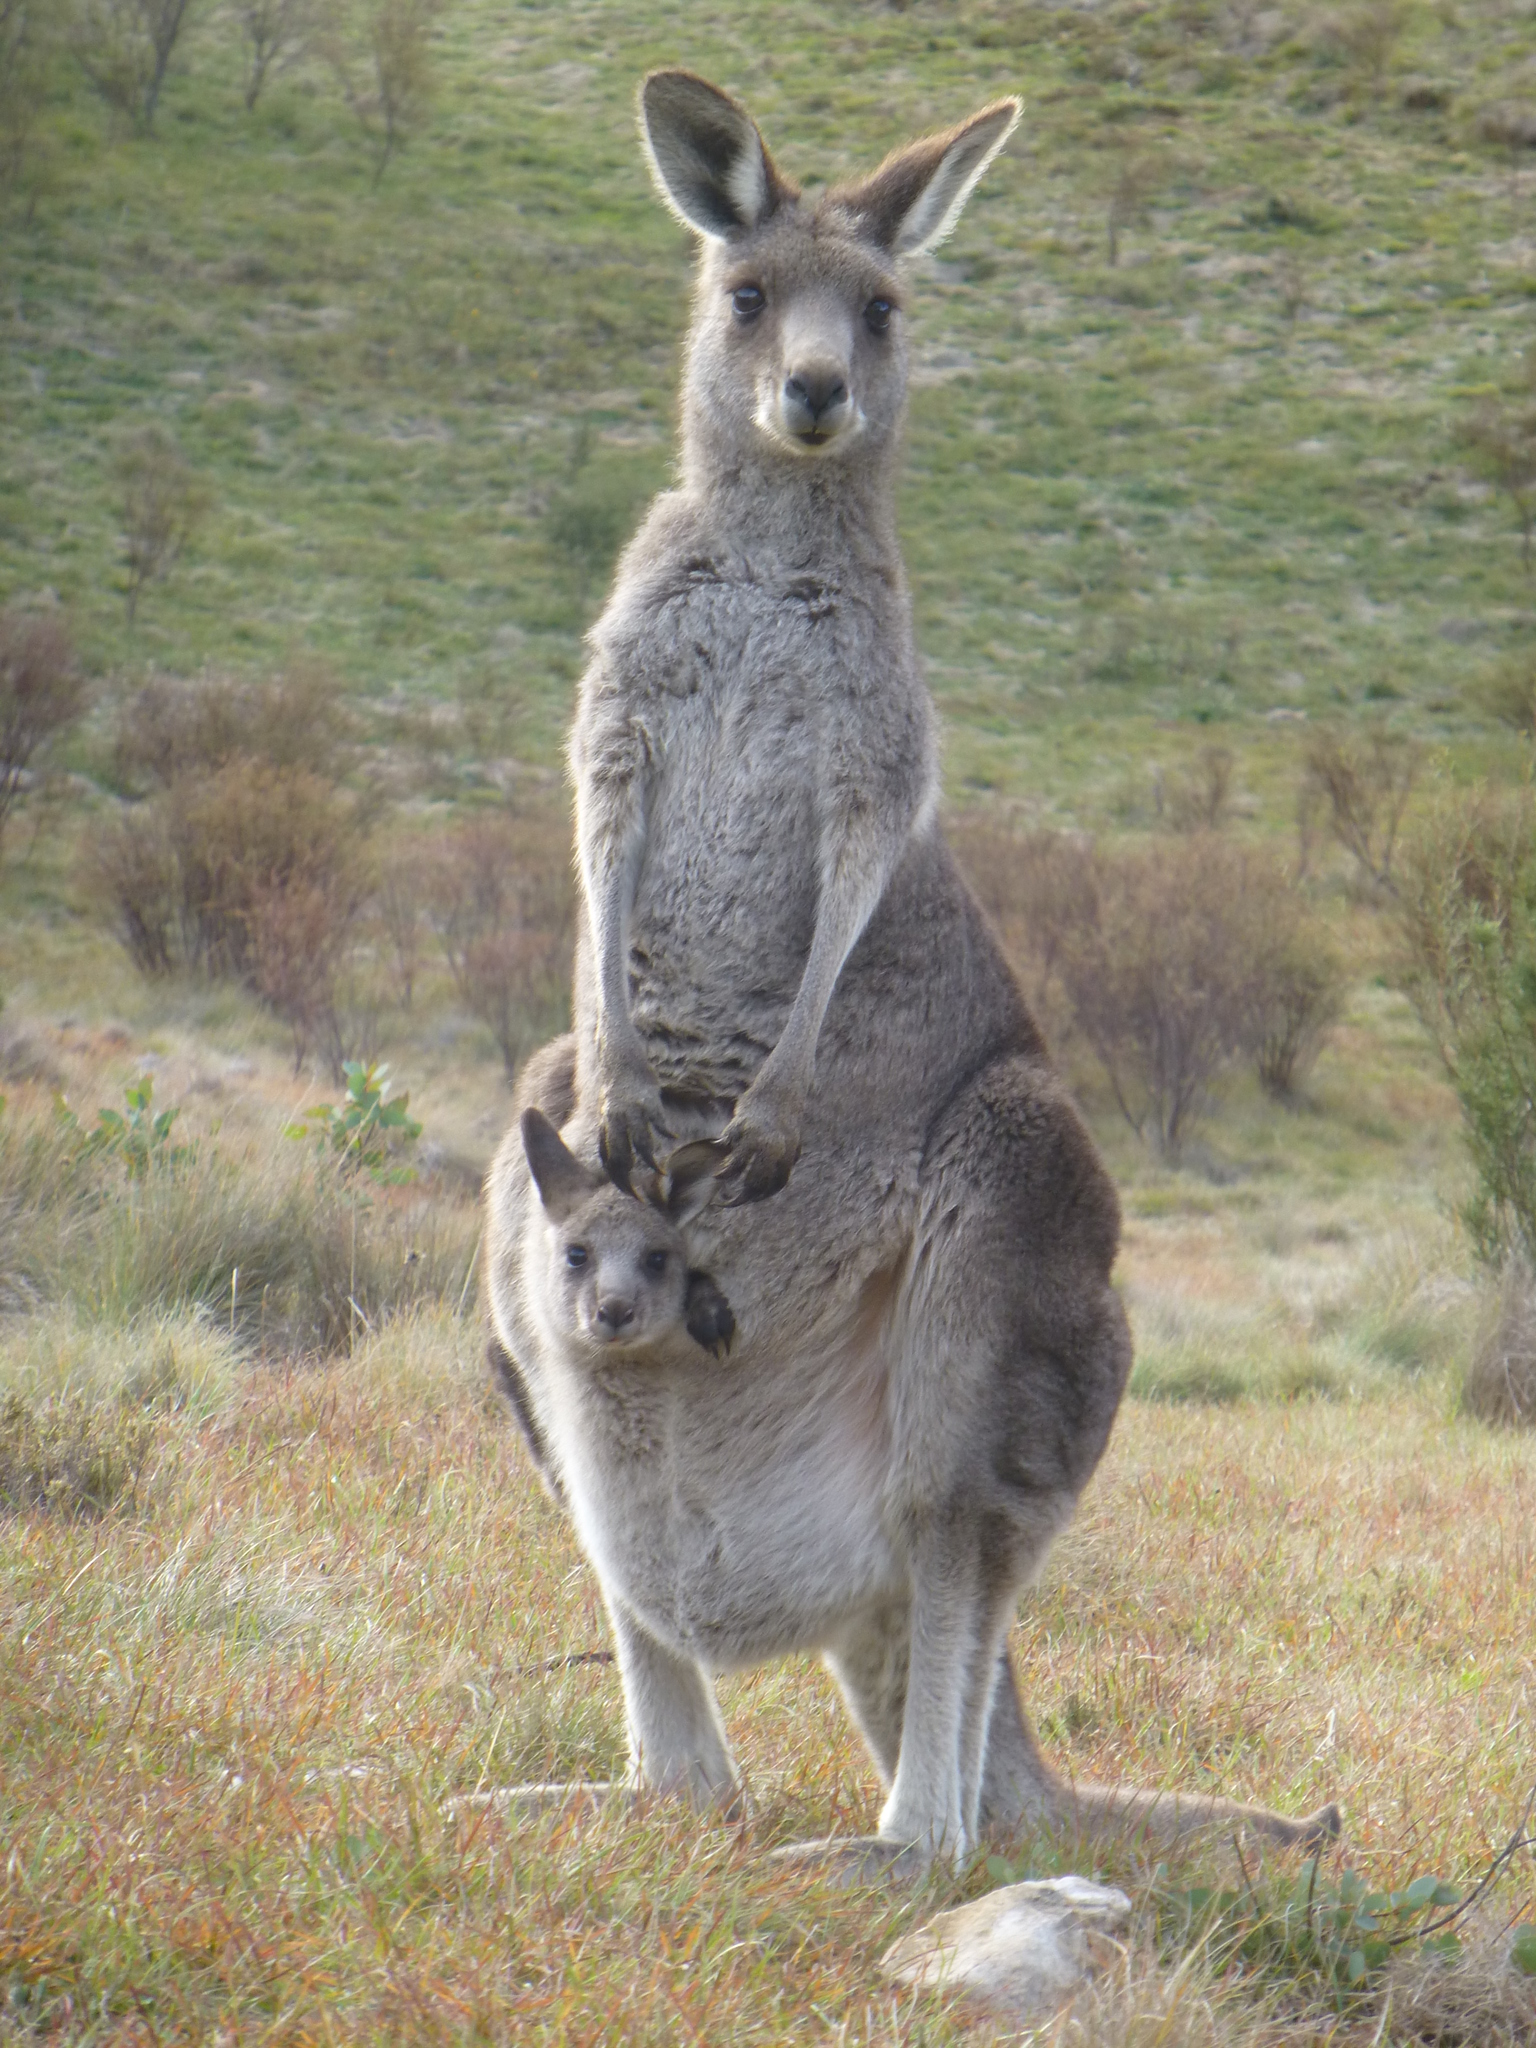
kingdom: Animalia
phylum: Chordata
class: Mammalia
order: Diprotodontia
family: Macropodidae
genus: Macropus
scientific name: Macropus giganteus
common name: Eastern grey kangaroo
